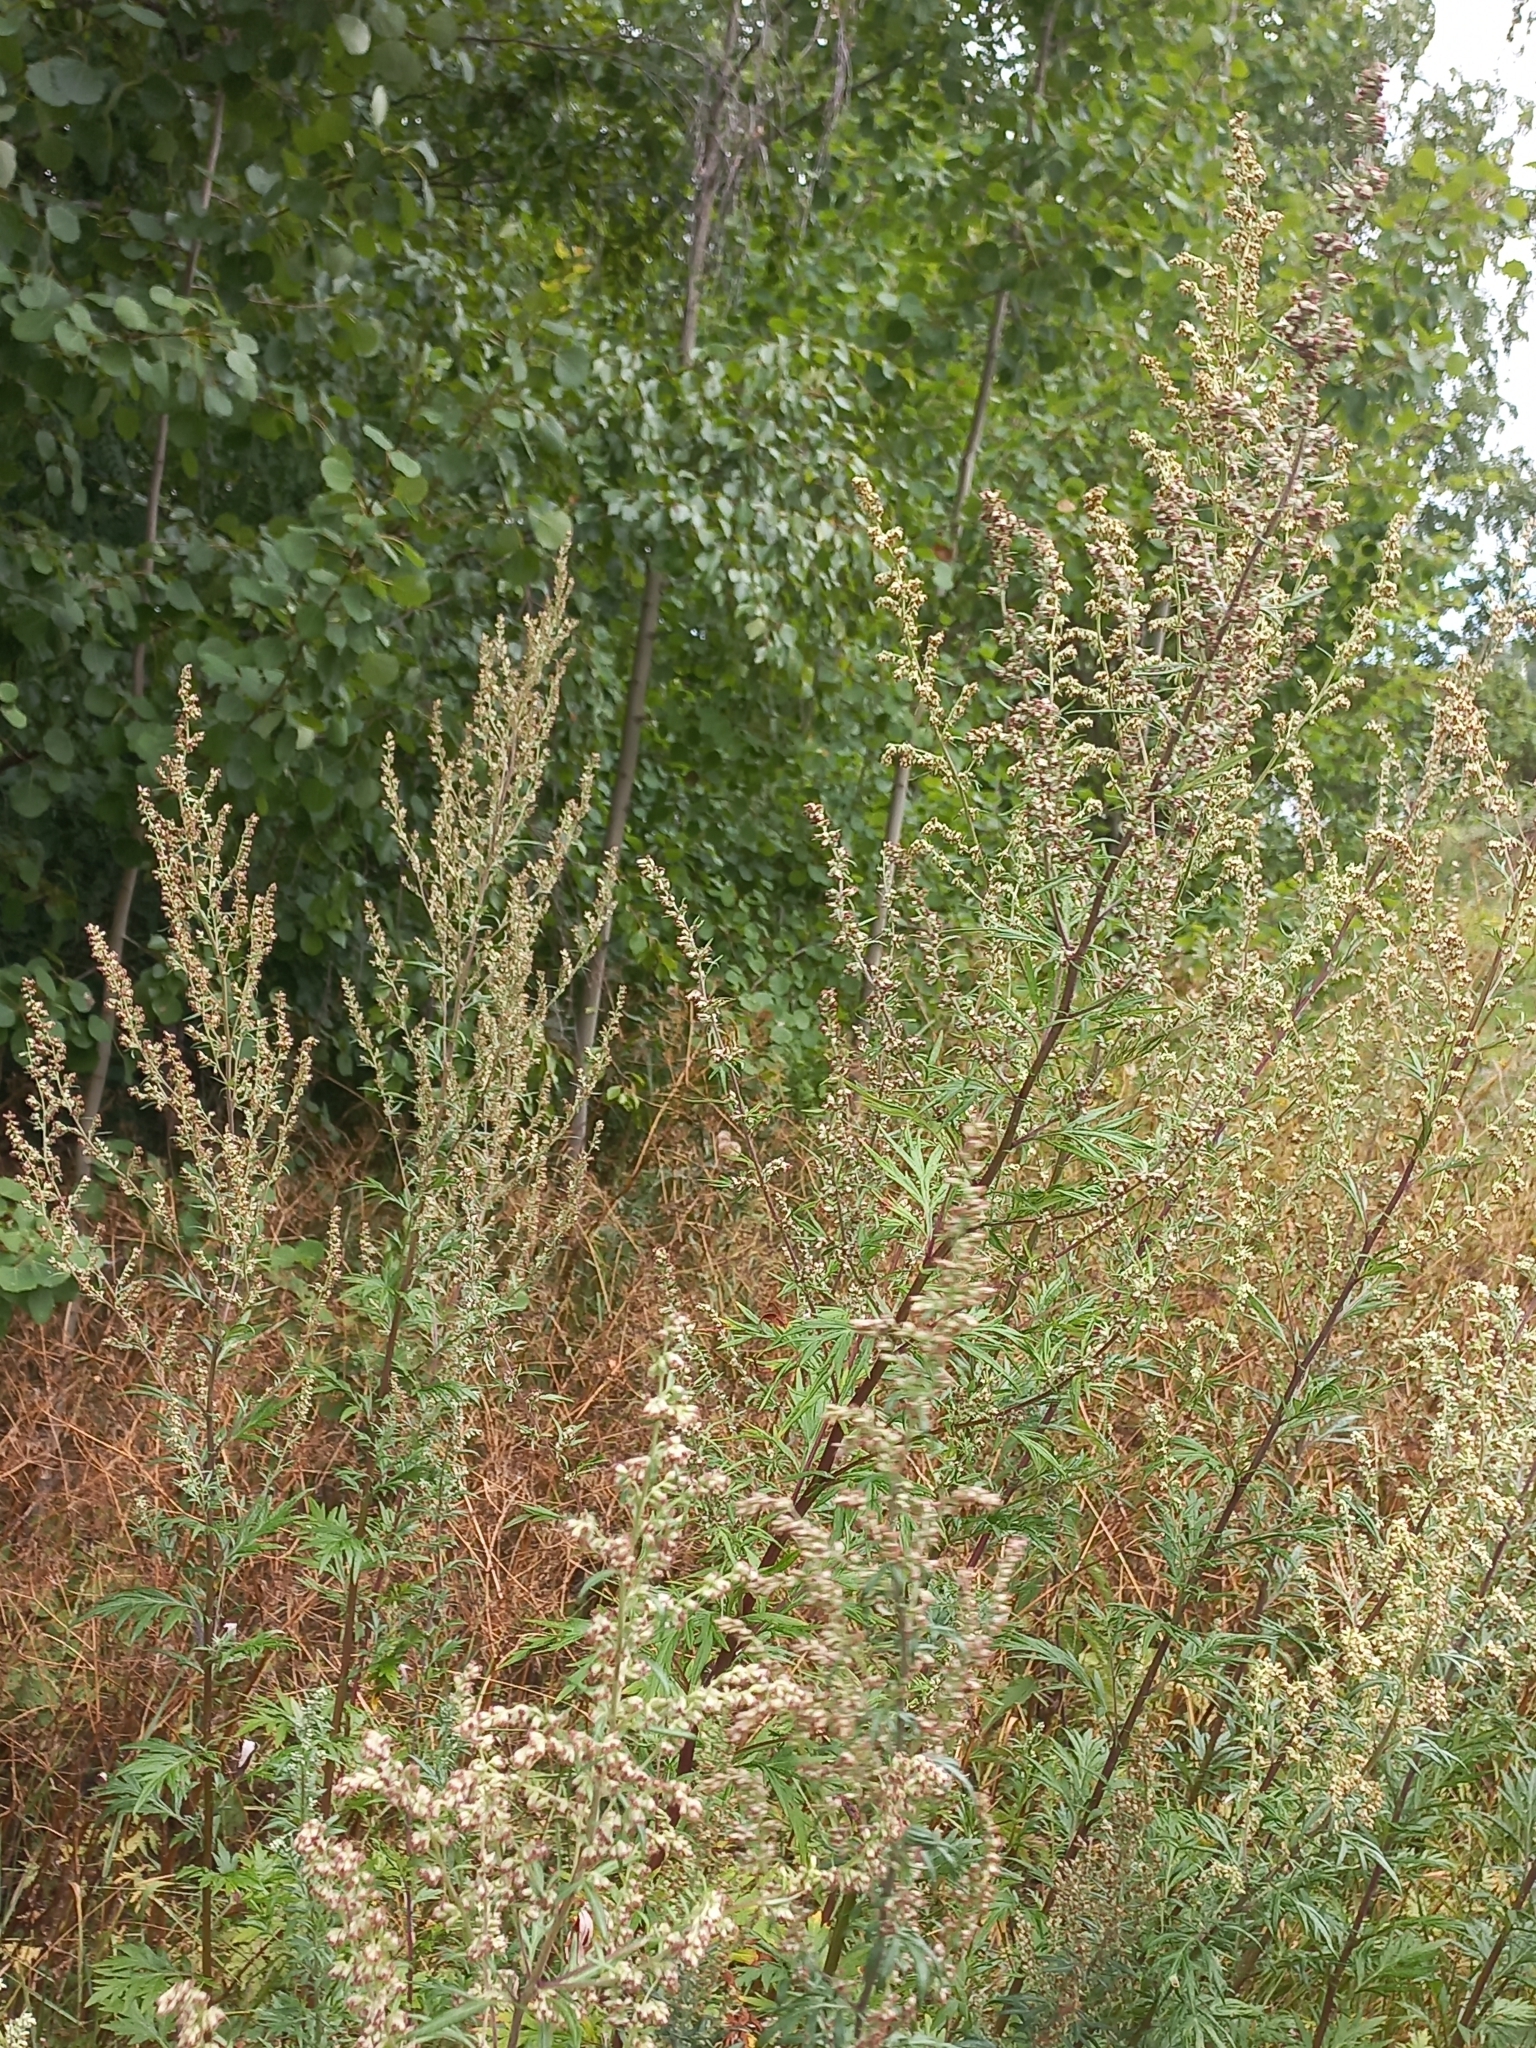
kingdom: Plantae
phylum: Tracheophyta
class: Magnoliopsida
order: Asterales
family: Asteraceae
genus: Artemisia
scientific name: Artemisia vulgaris
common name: Mugwort
